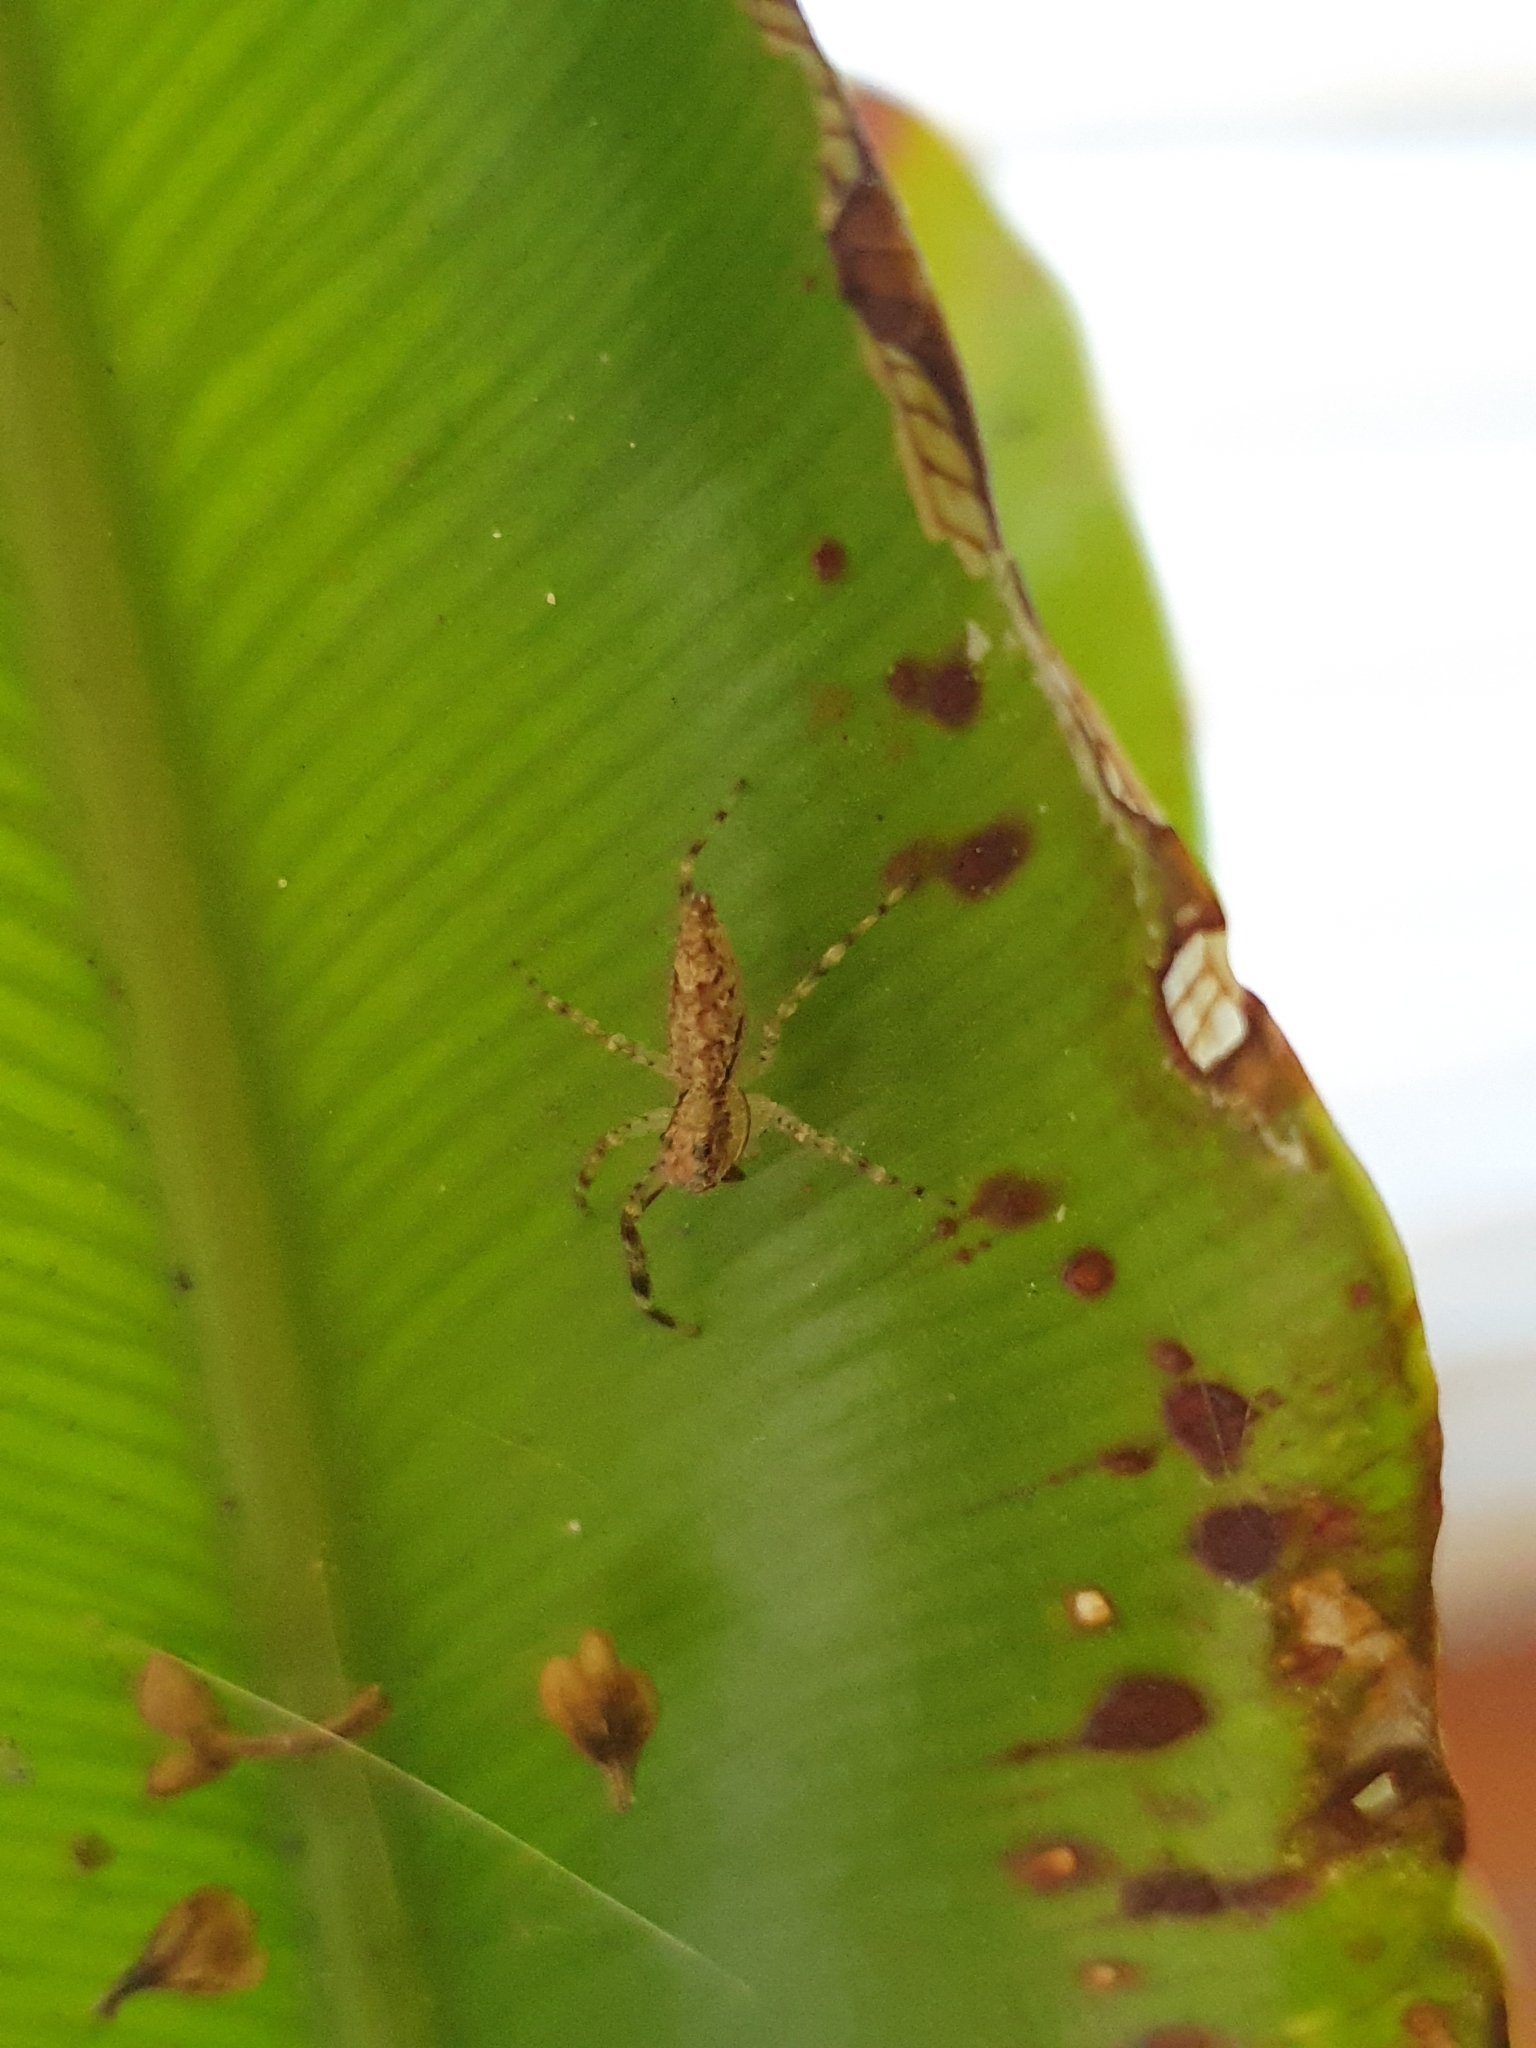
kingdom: Animalia
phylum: Arthropoda
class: Arachnida
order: Araneae
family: Salticidae
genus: Helpis
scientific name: Helpis minitabunda
